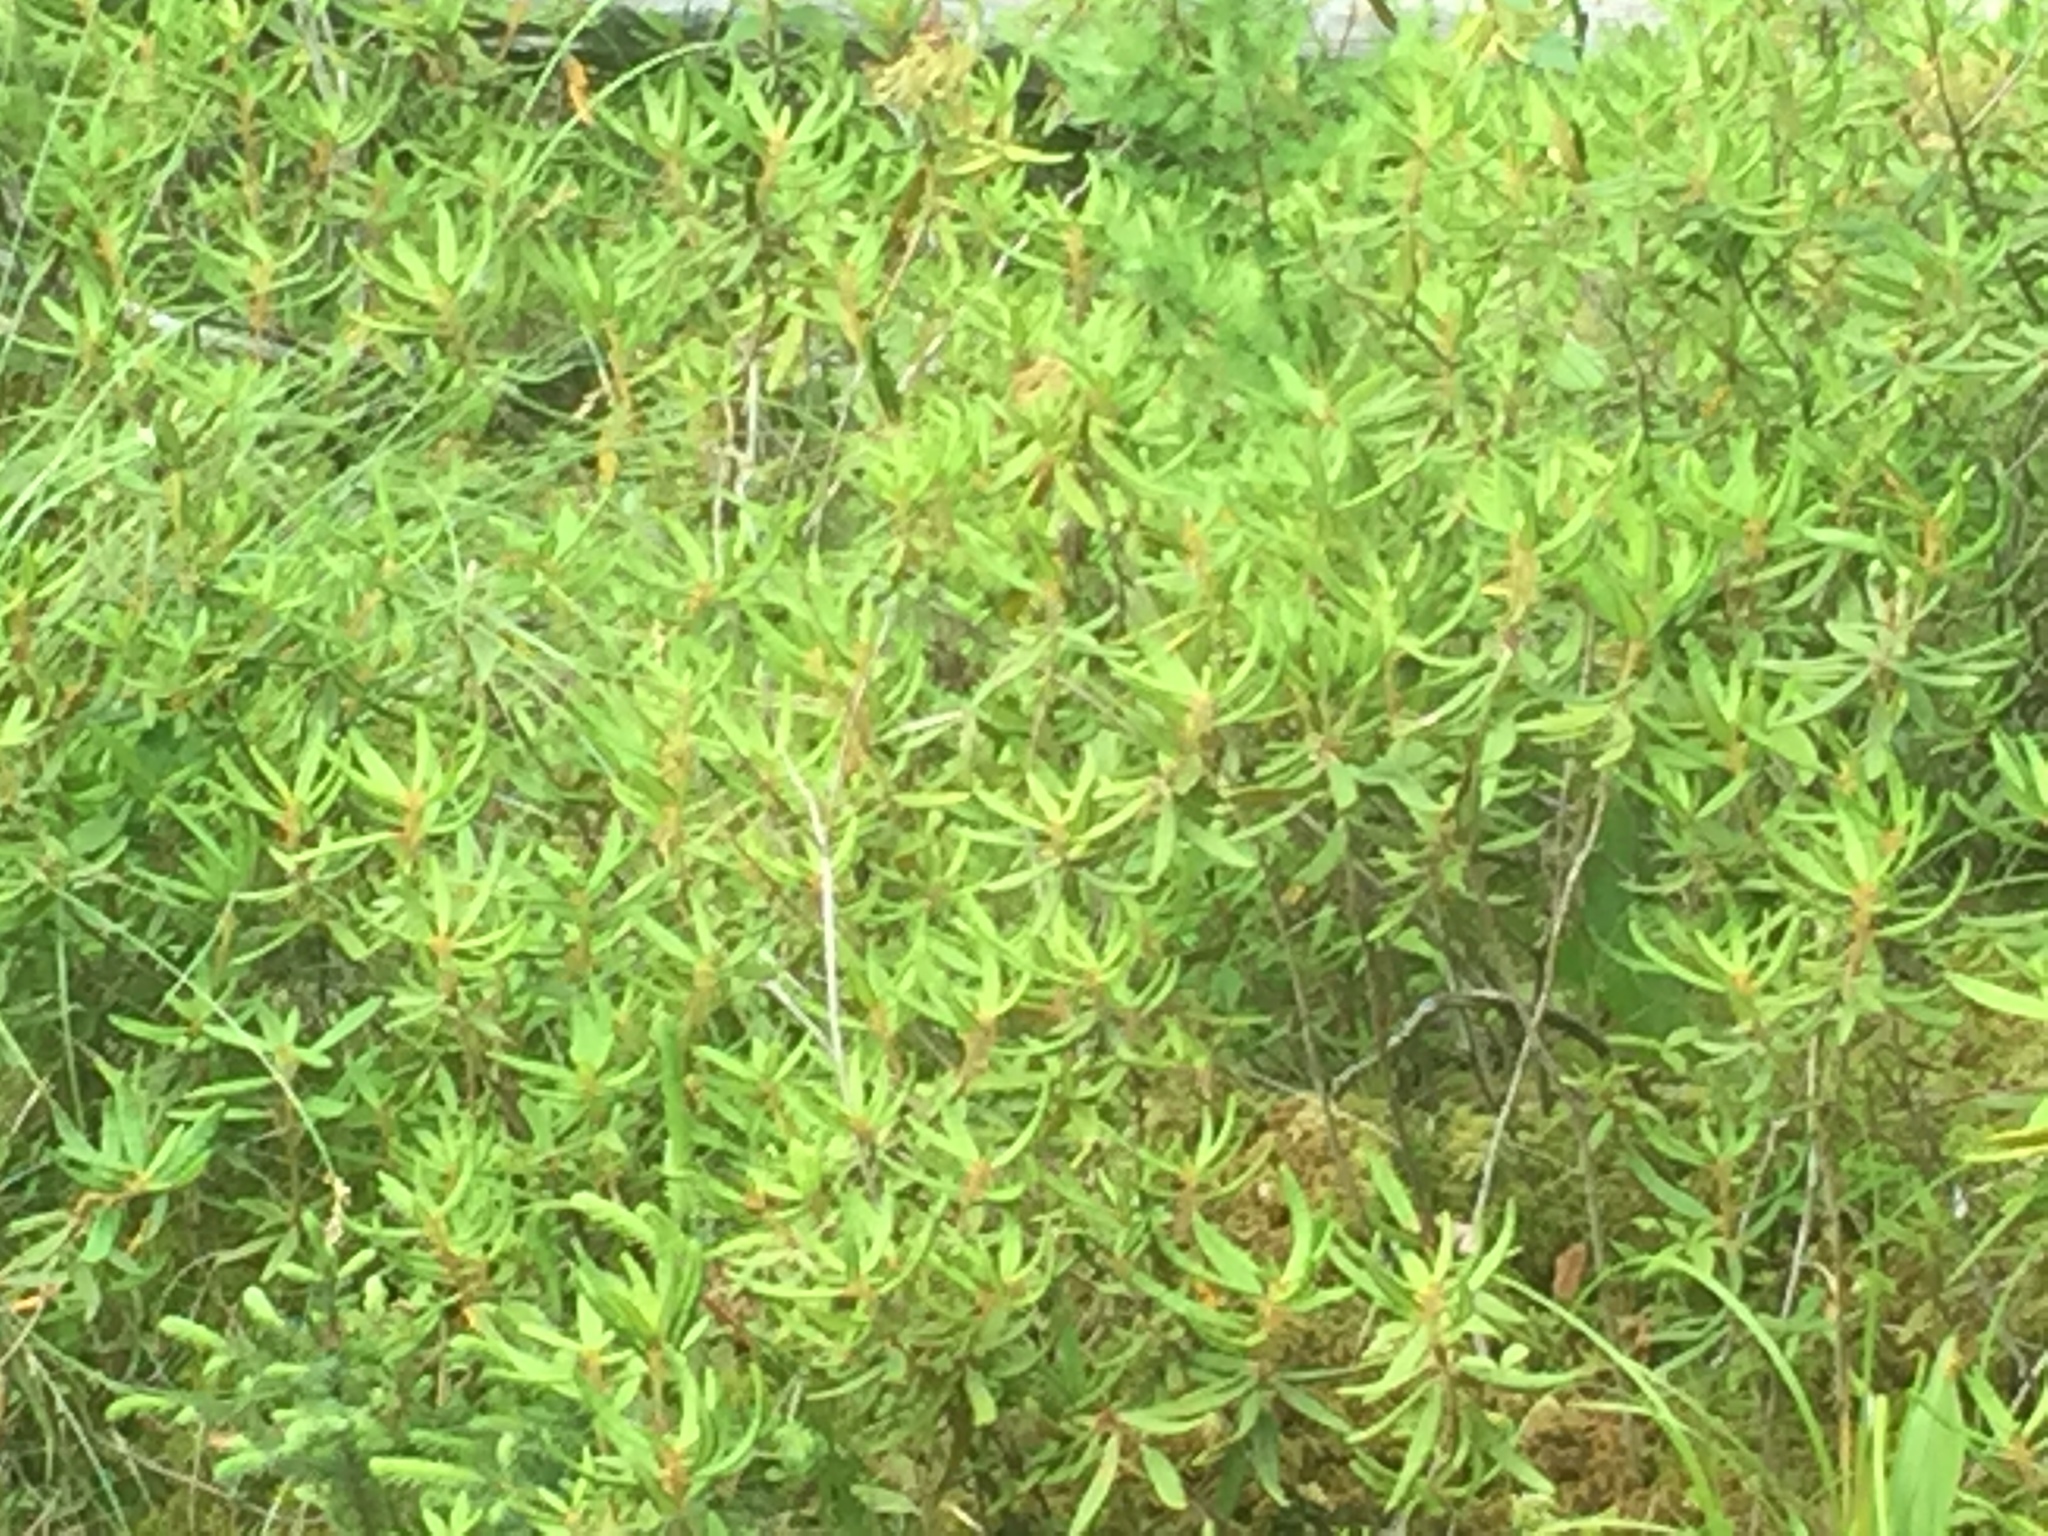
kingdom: Plantae
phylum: Tracheophyta
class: Magnoliopsida
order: Ericales
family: Ericaceae
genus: Rhododendron
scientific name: Rhododendron groenlandicum
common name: Bog labrador tea
